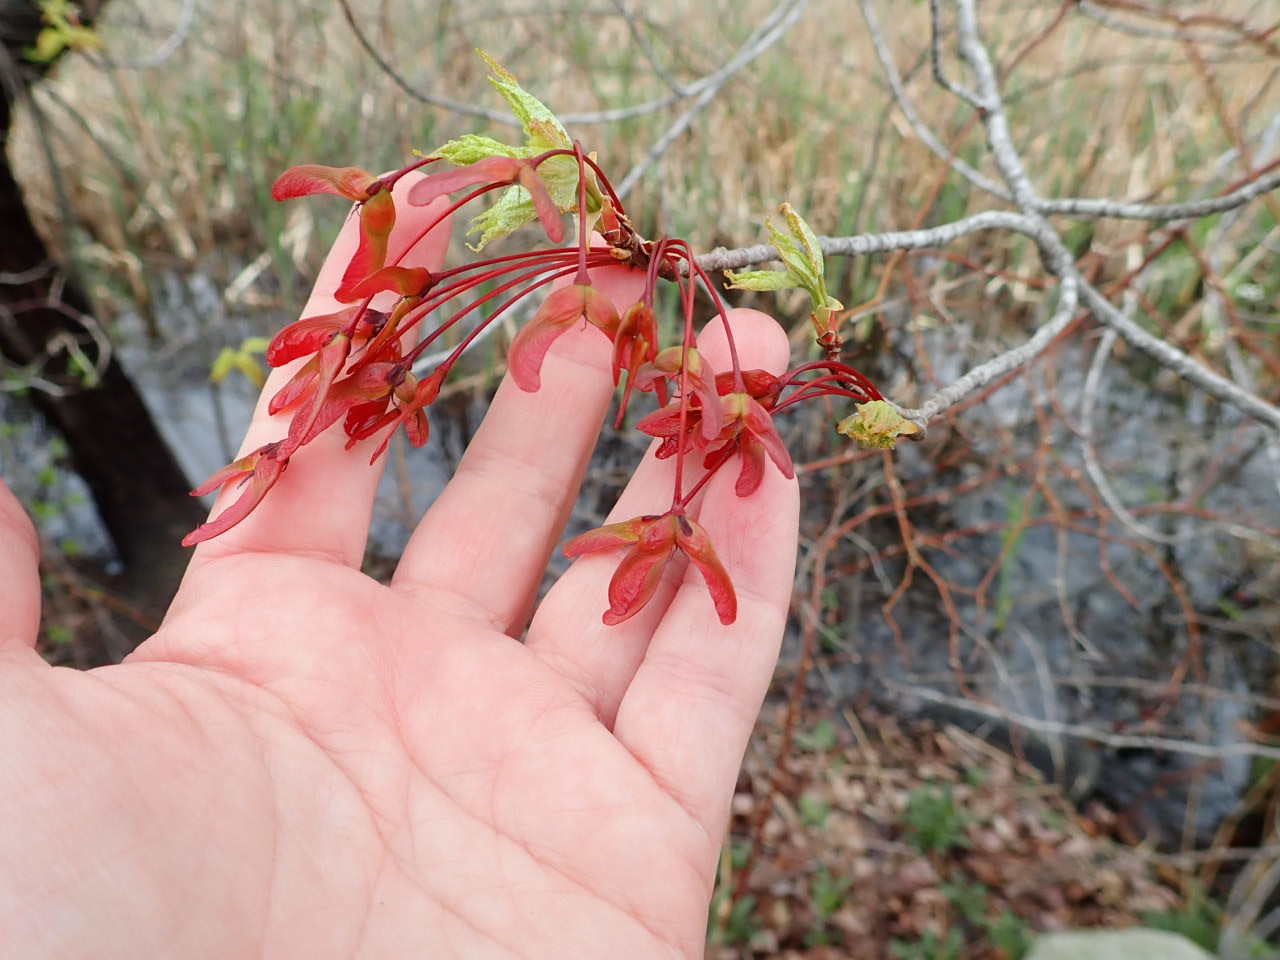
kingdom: Plantae
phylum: Tracheophyta
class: Magnoliopsida
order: Sapindales
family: Sapindaceae
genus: Acer
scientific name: Acer rubrum
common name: Red maple
